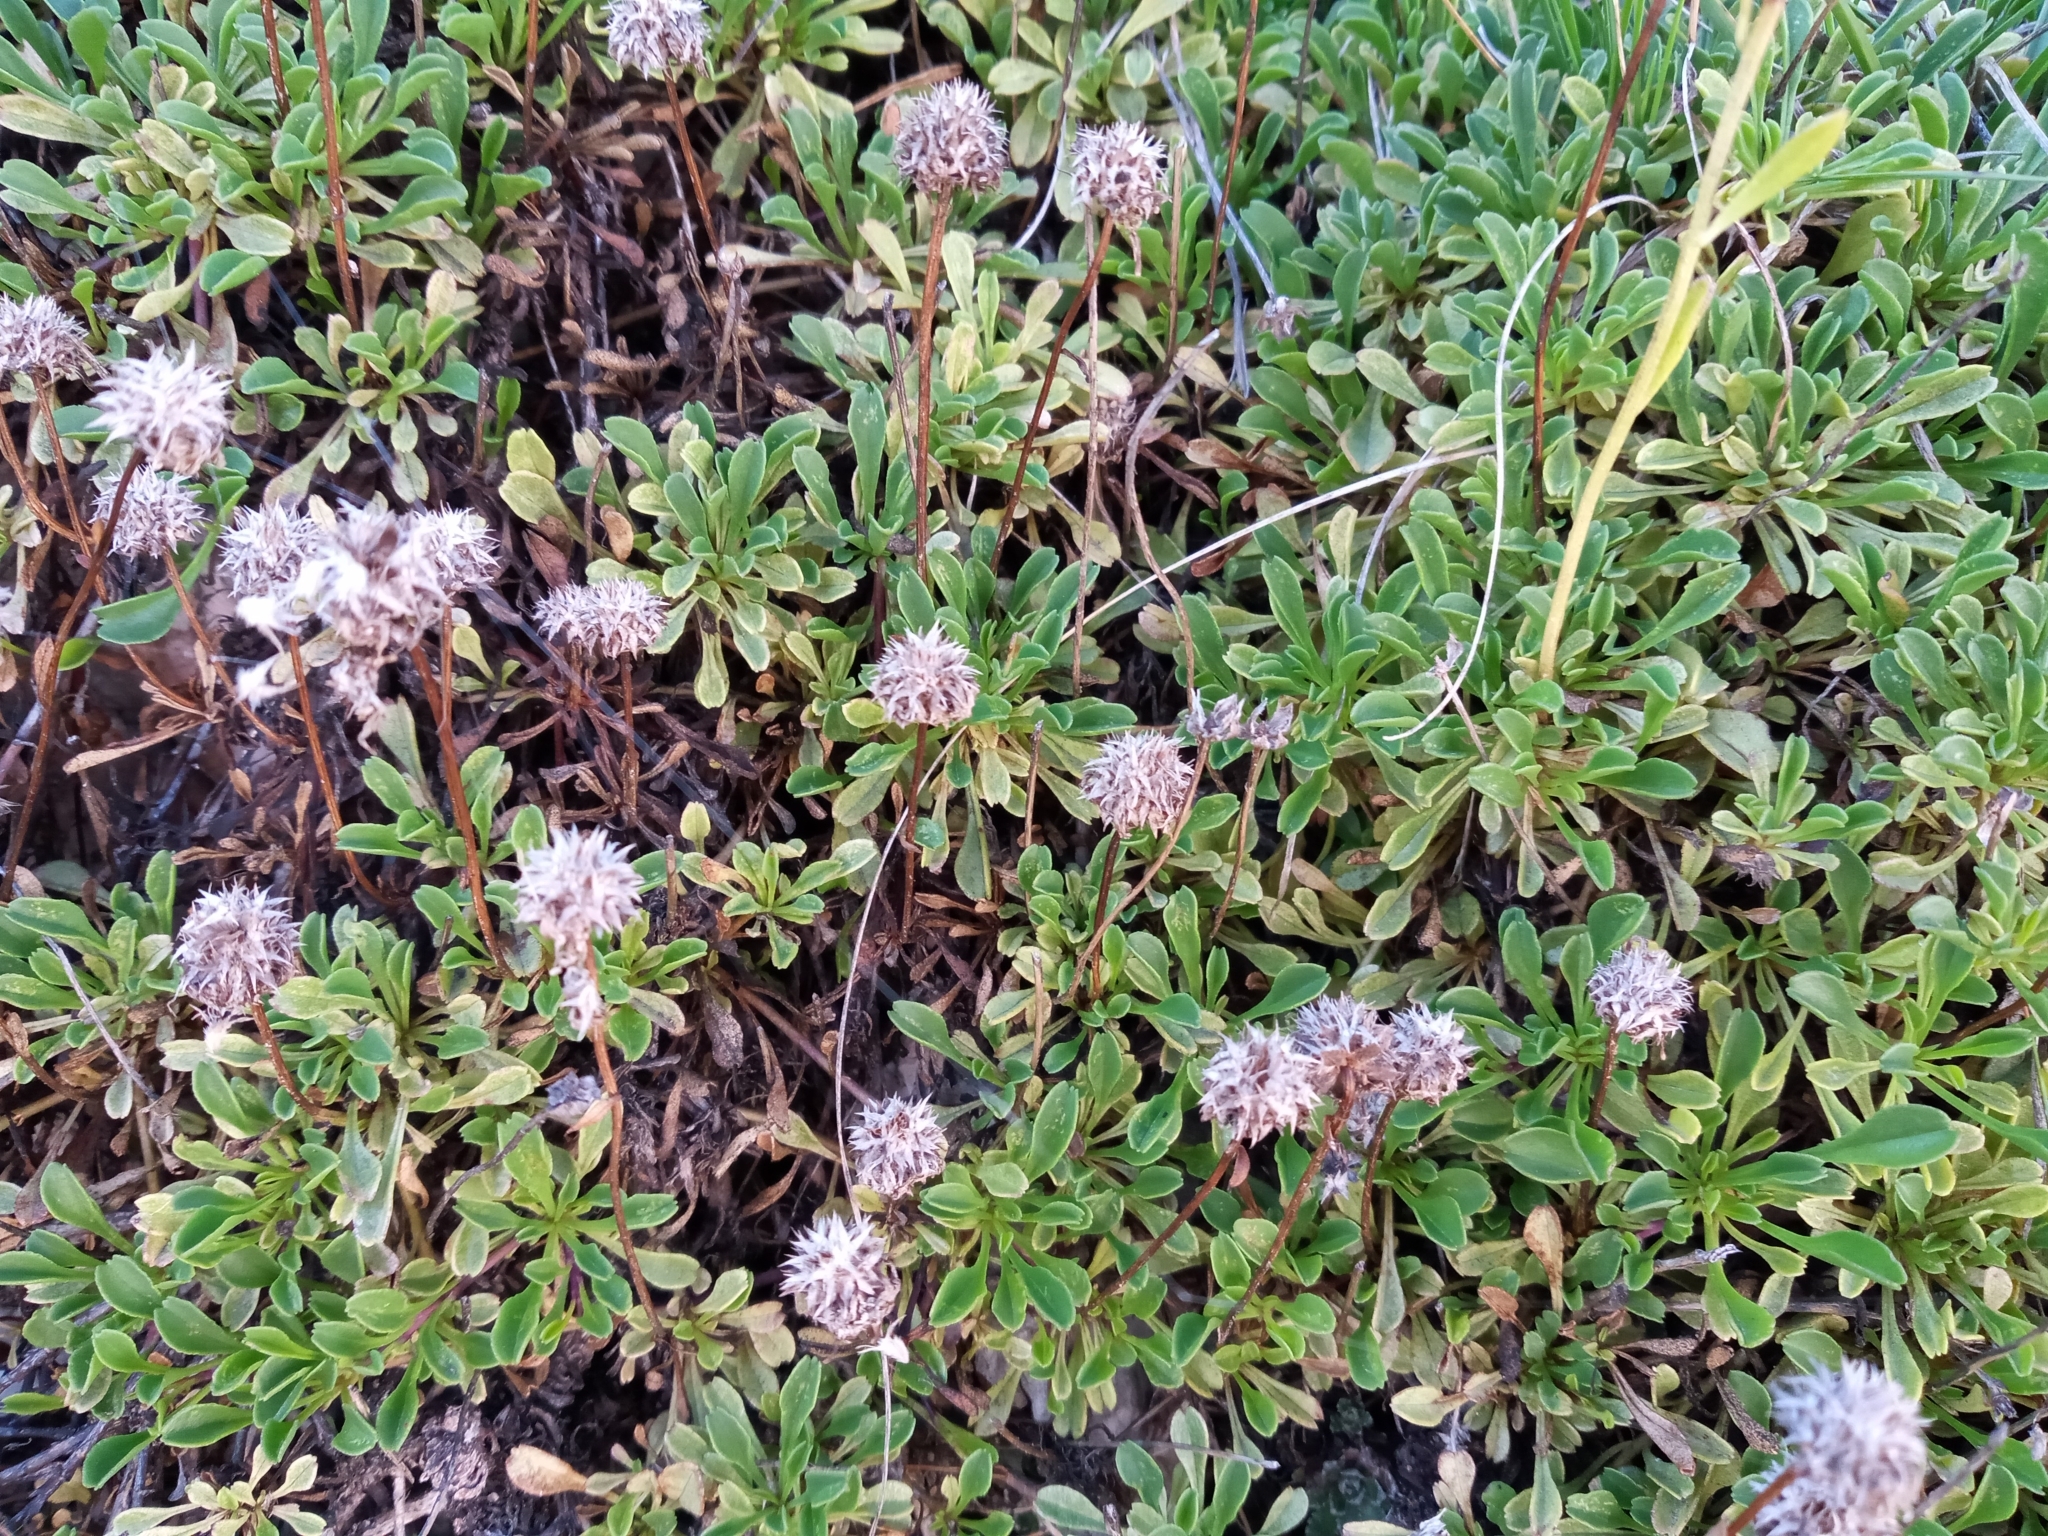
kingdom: Plantae
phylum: Tracheophyta
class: Magnoliopsida
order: Lamiales
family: Plantaginaceae
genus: Globularia
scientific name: Globularia cordifolia
